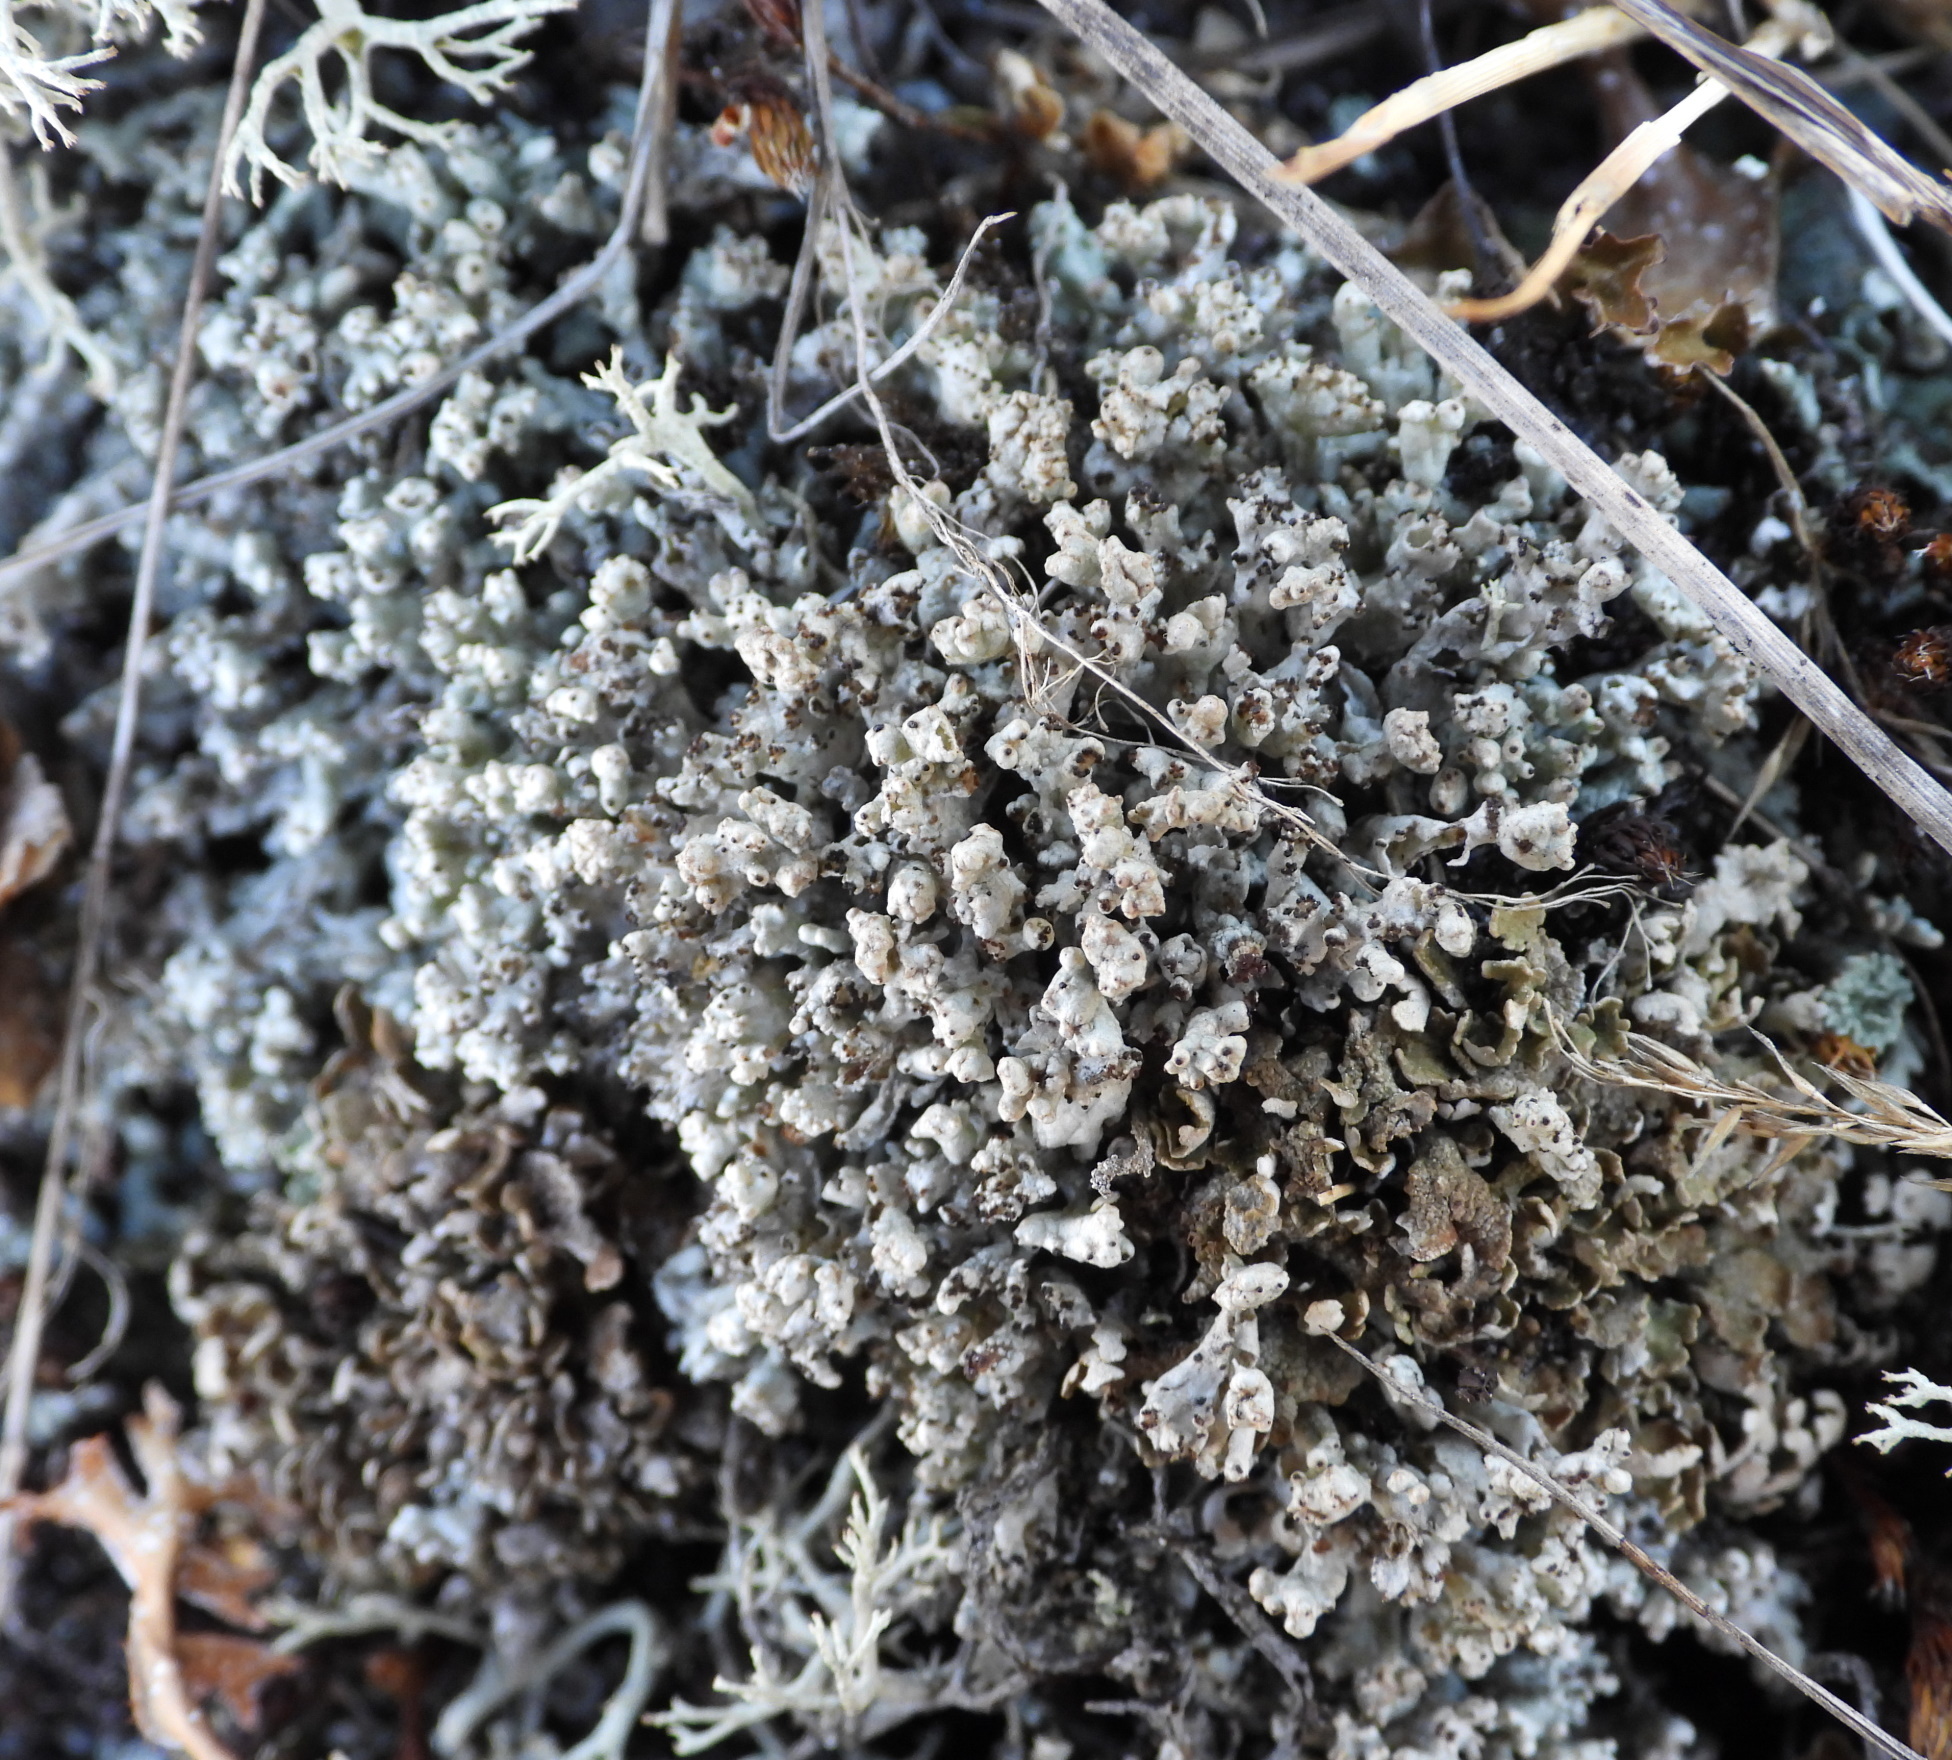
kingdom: Fungi
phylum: Ascomycota
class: Lecanoromycetes
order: Lecanorales
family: Cladoniaceae
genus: Pycnothelia
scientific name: Pycnothelia papillaria
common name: Nipple lichen
